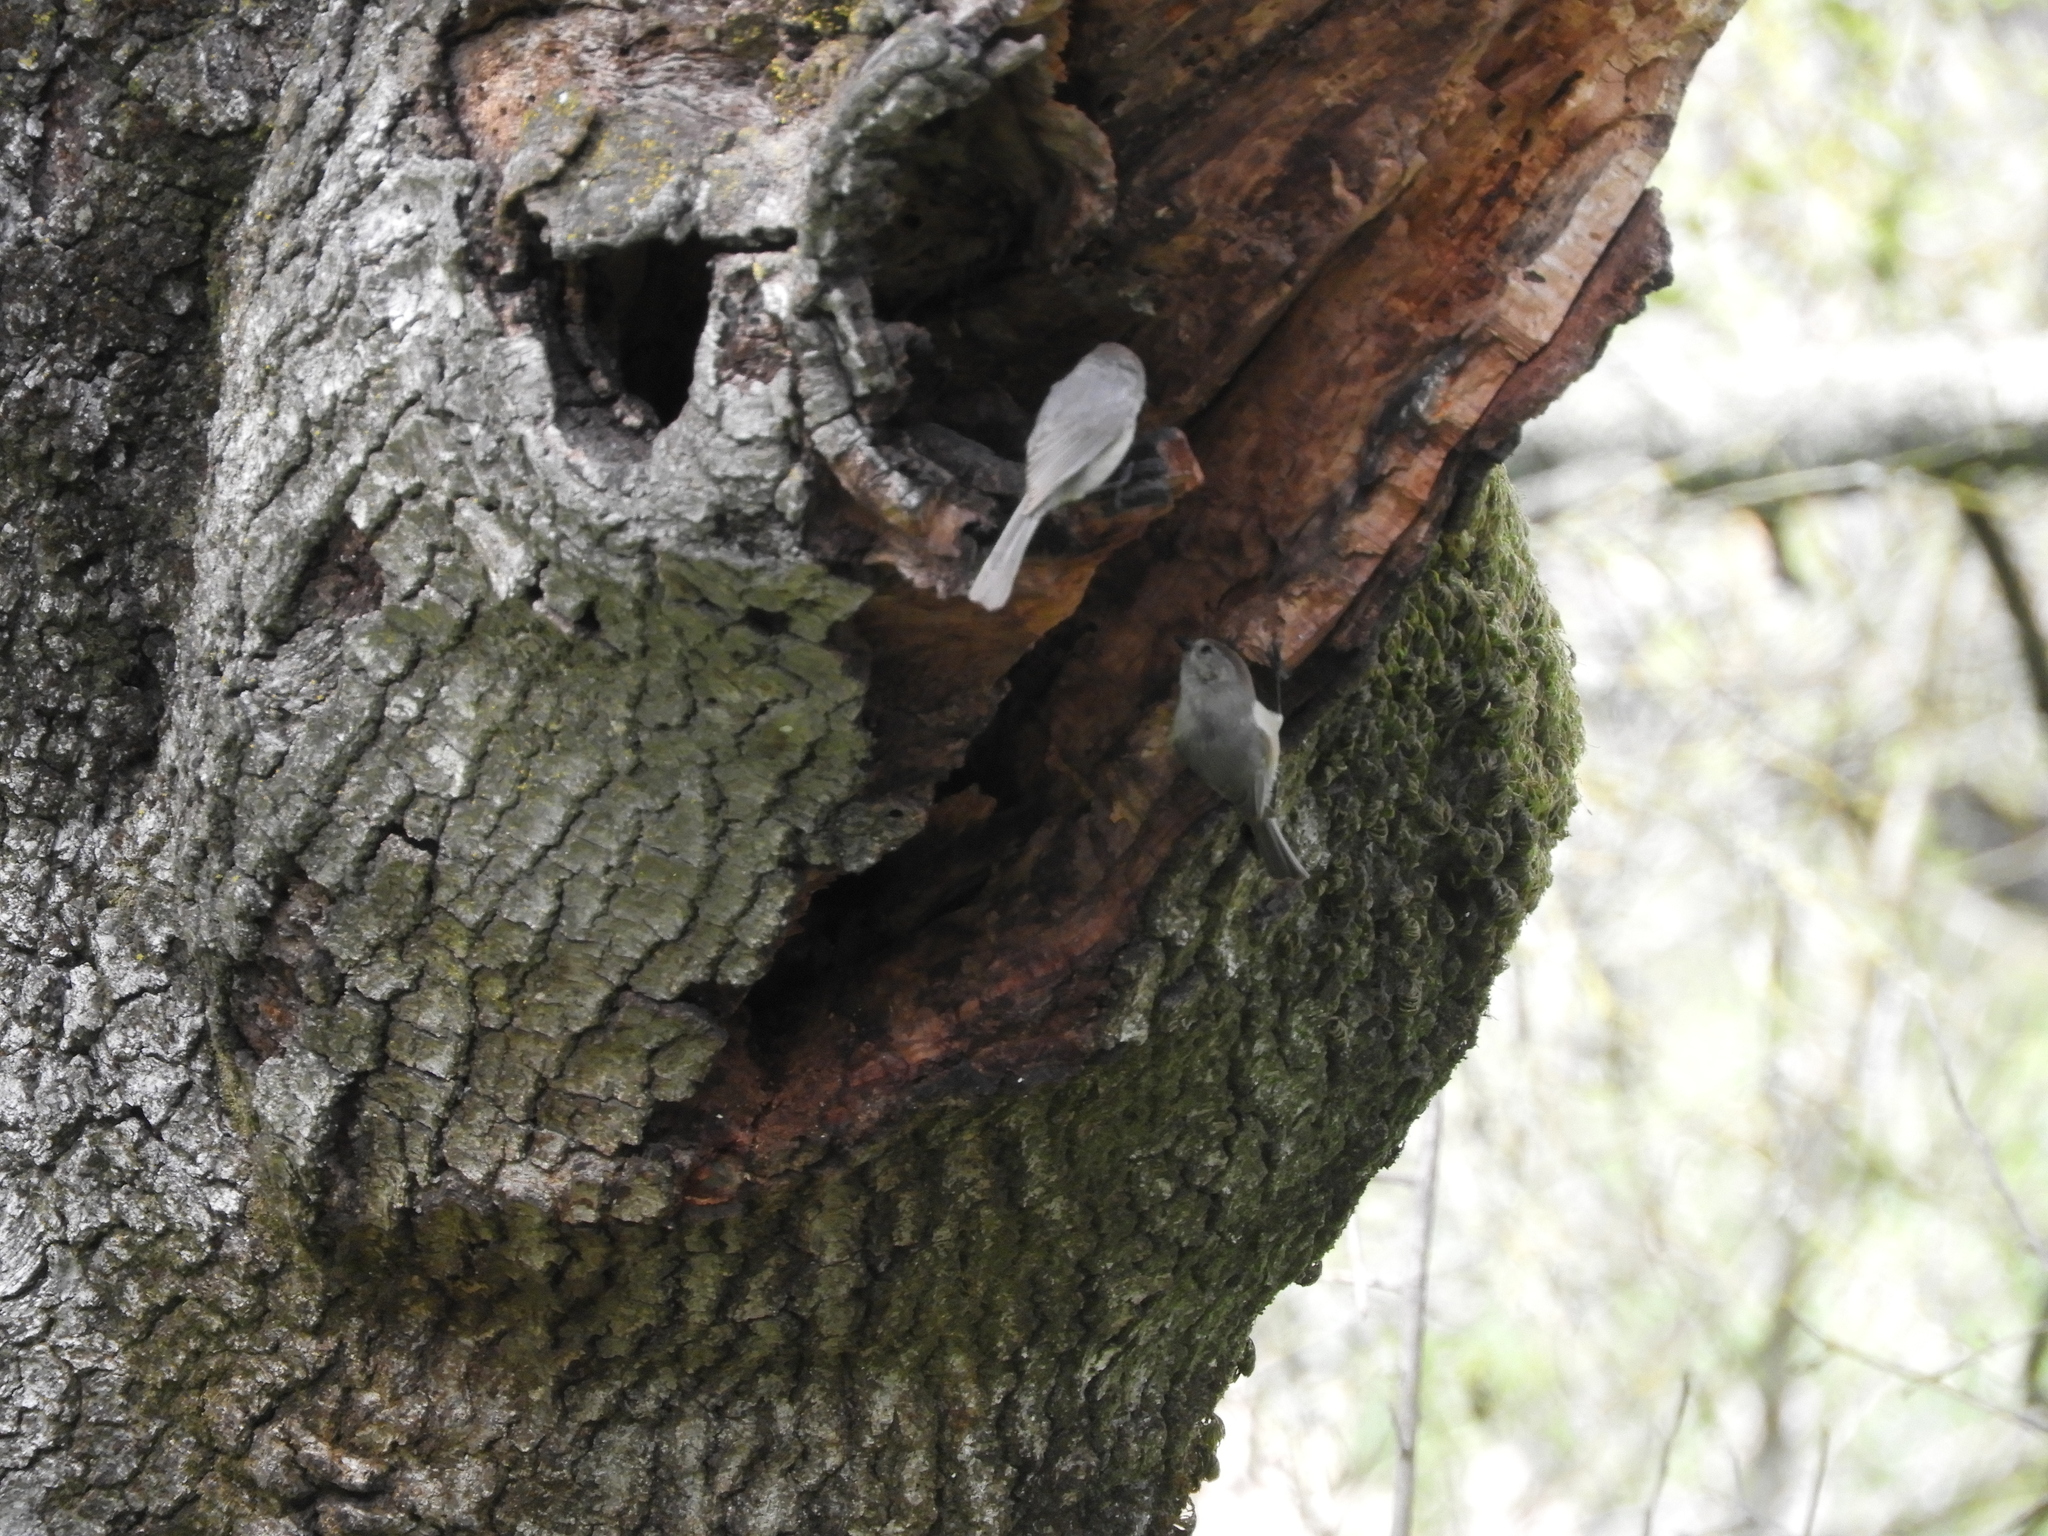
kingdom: Animalia
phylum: Chordata
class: Aves
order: Passeriformes
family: Aegithalidae
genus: Psaltriparus
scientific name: Psaltriparus minimus
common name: American bushtit
